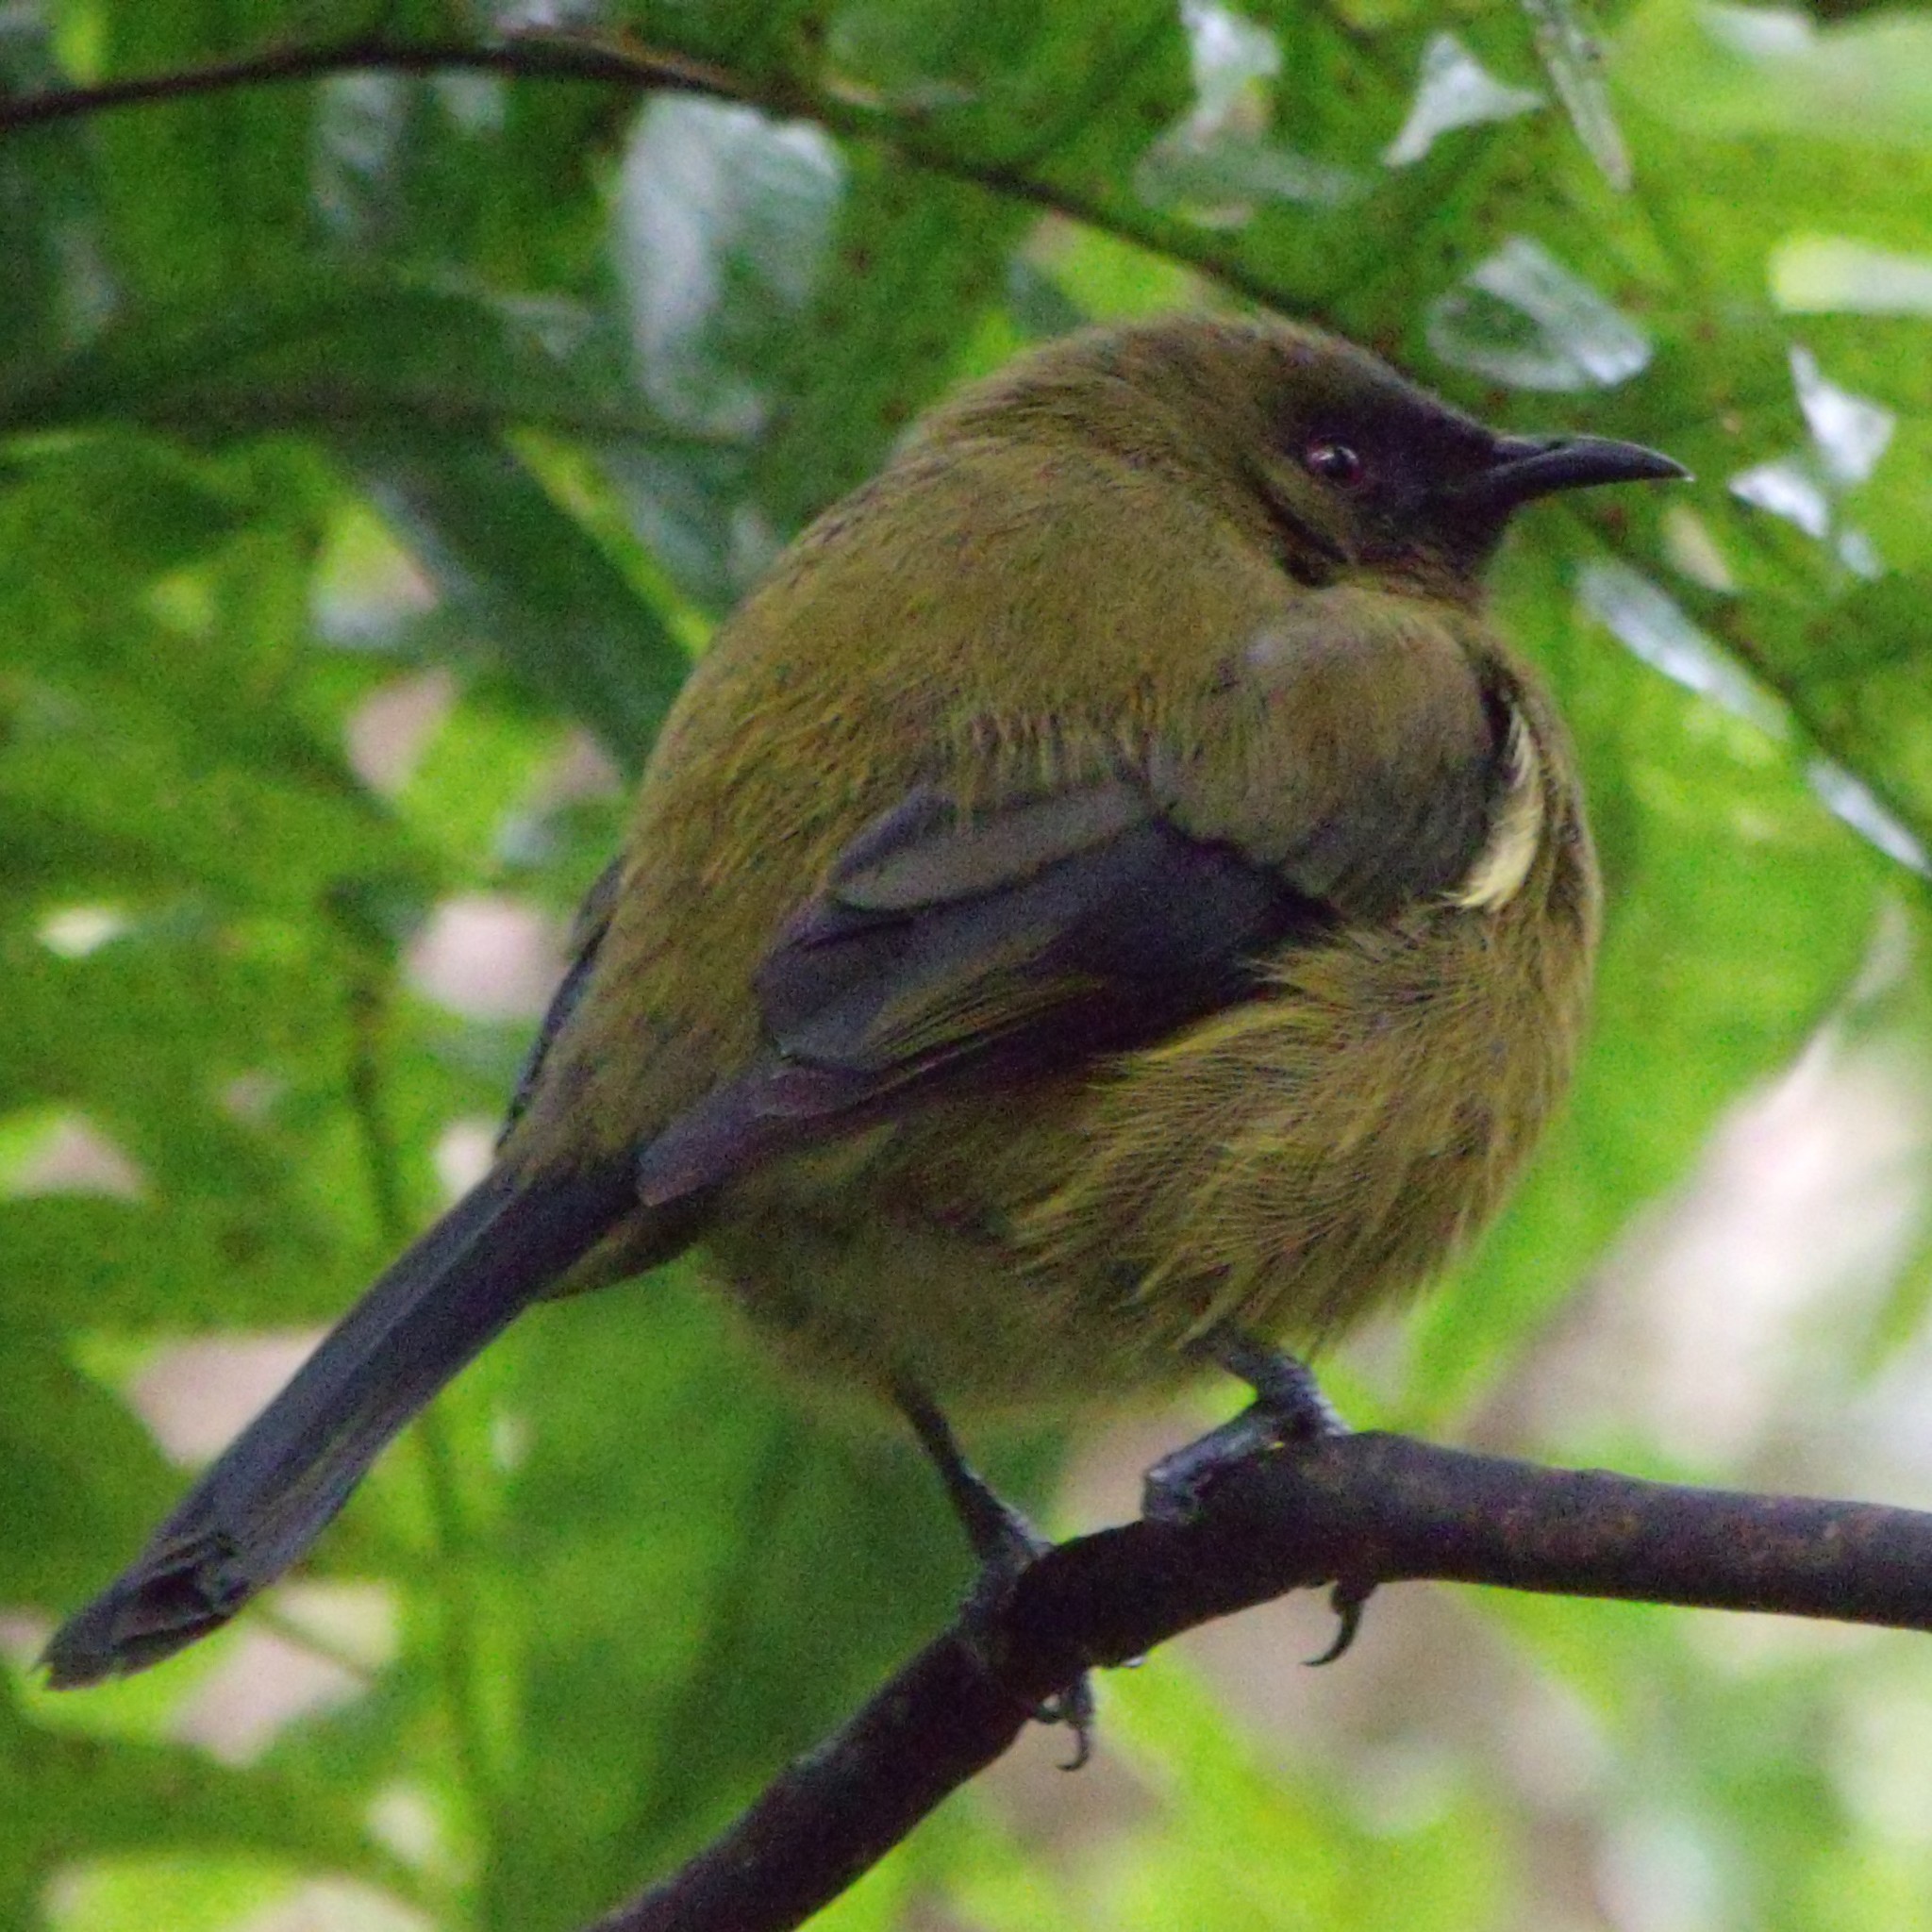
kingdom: Animalia
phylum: Chordata
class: Aves
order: Passeriformes
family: Meliphagidae
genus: Anthornis
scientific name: Anthornis melanura
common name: New zealand bellbird
